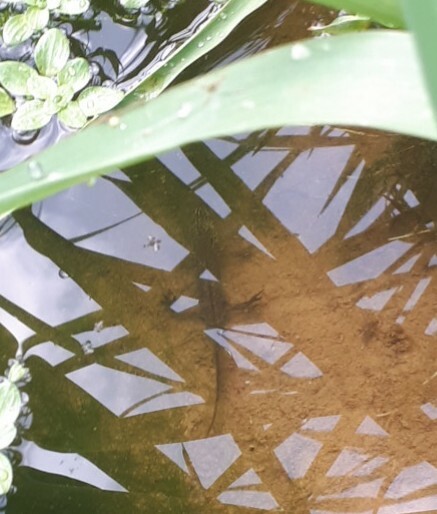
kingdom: Animalia
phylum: Chordata
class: Amphibia
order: Caudata
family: Salamandridae
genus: Lissotriton
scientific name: Lissotriton helveticus
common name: Palmate newt
